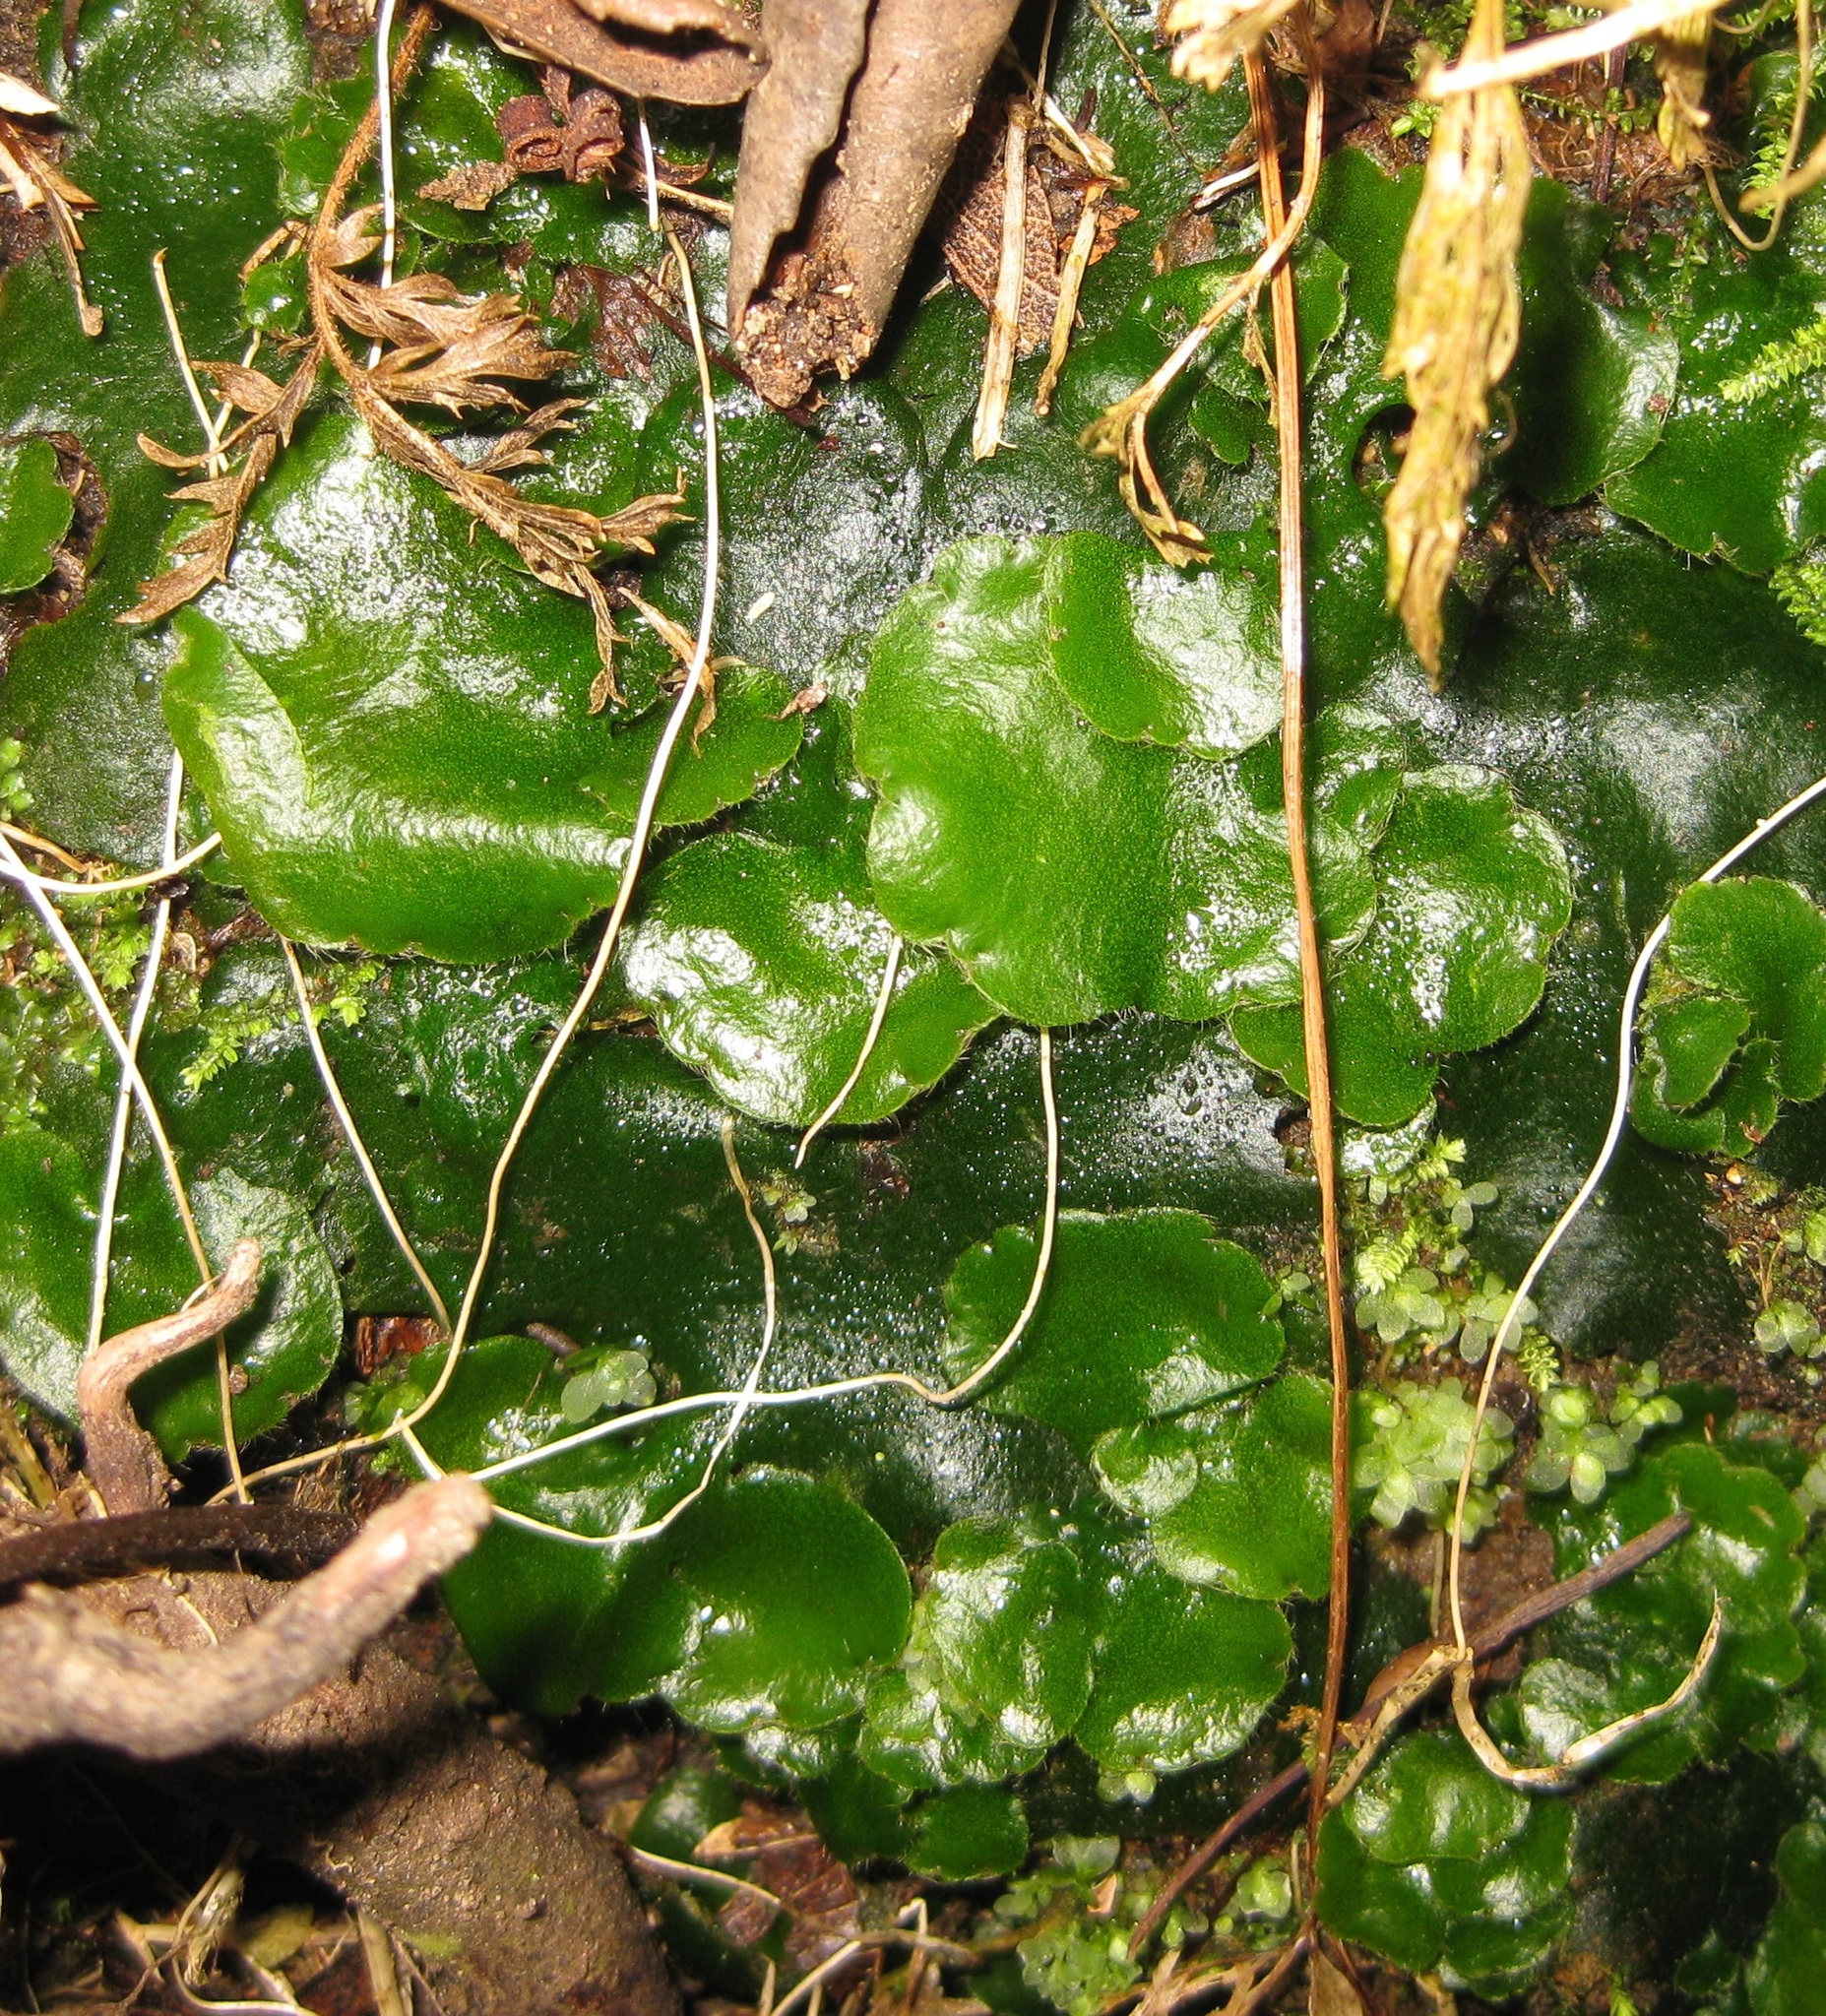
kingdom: Plantae
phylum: Marchantiophyta
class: Marchantiopsida
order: Marchantiales
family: Monocleaceae
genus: Monoclea
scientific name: Monoclea forsteri
